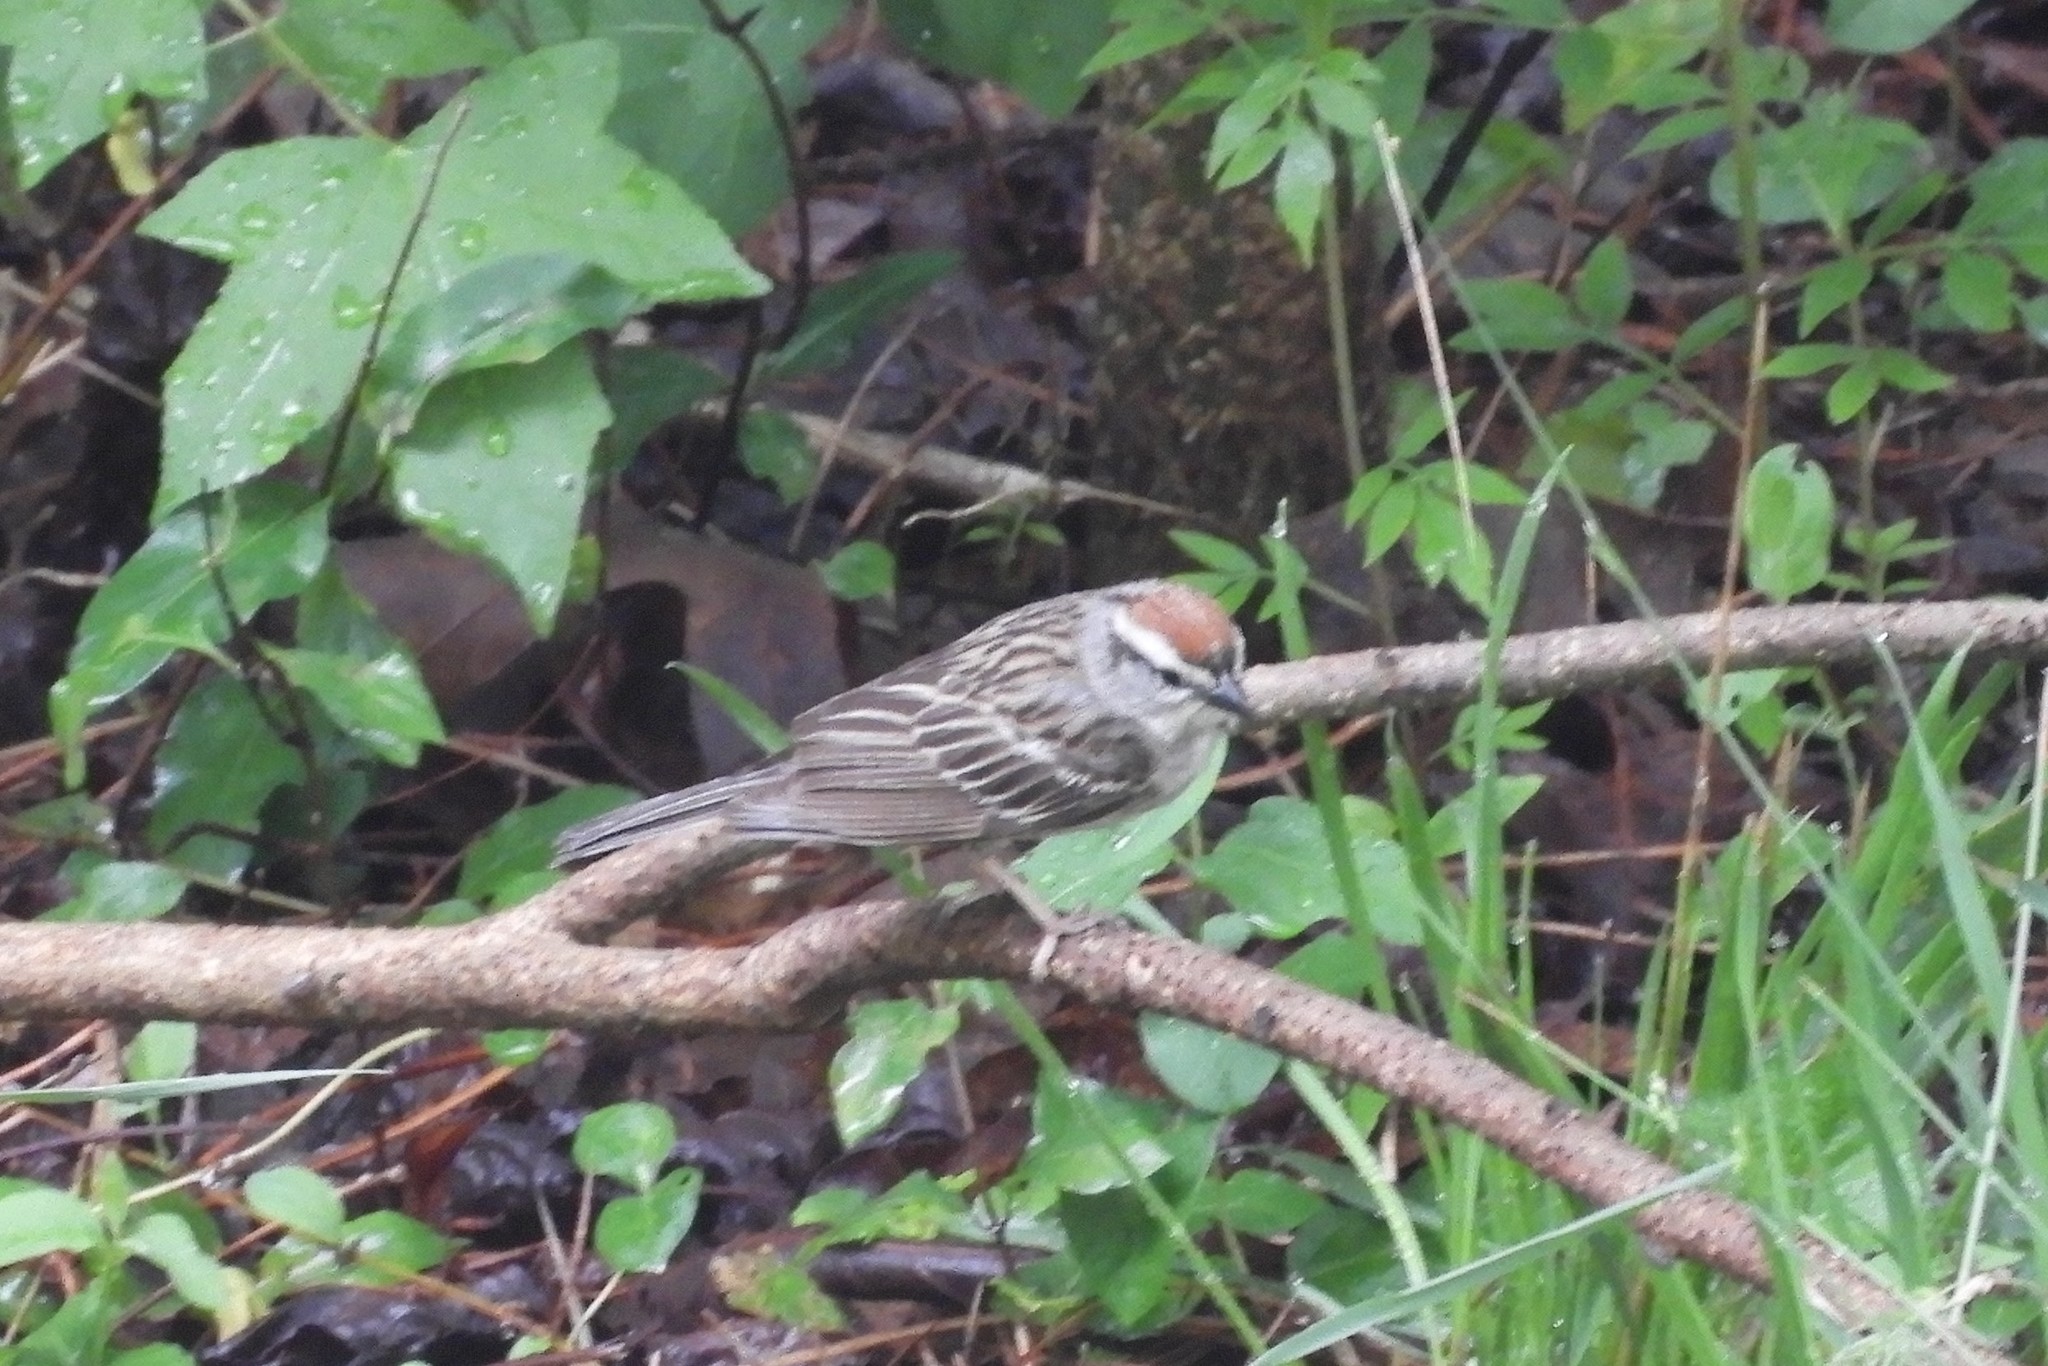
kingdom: Animalia
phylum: Chordata
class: Aves
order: Passeriformes
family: Passerellidae
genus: Spizella
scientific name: Spizella passerina
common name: Chipping sparrow
